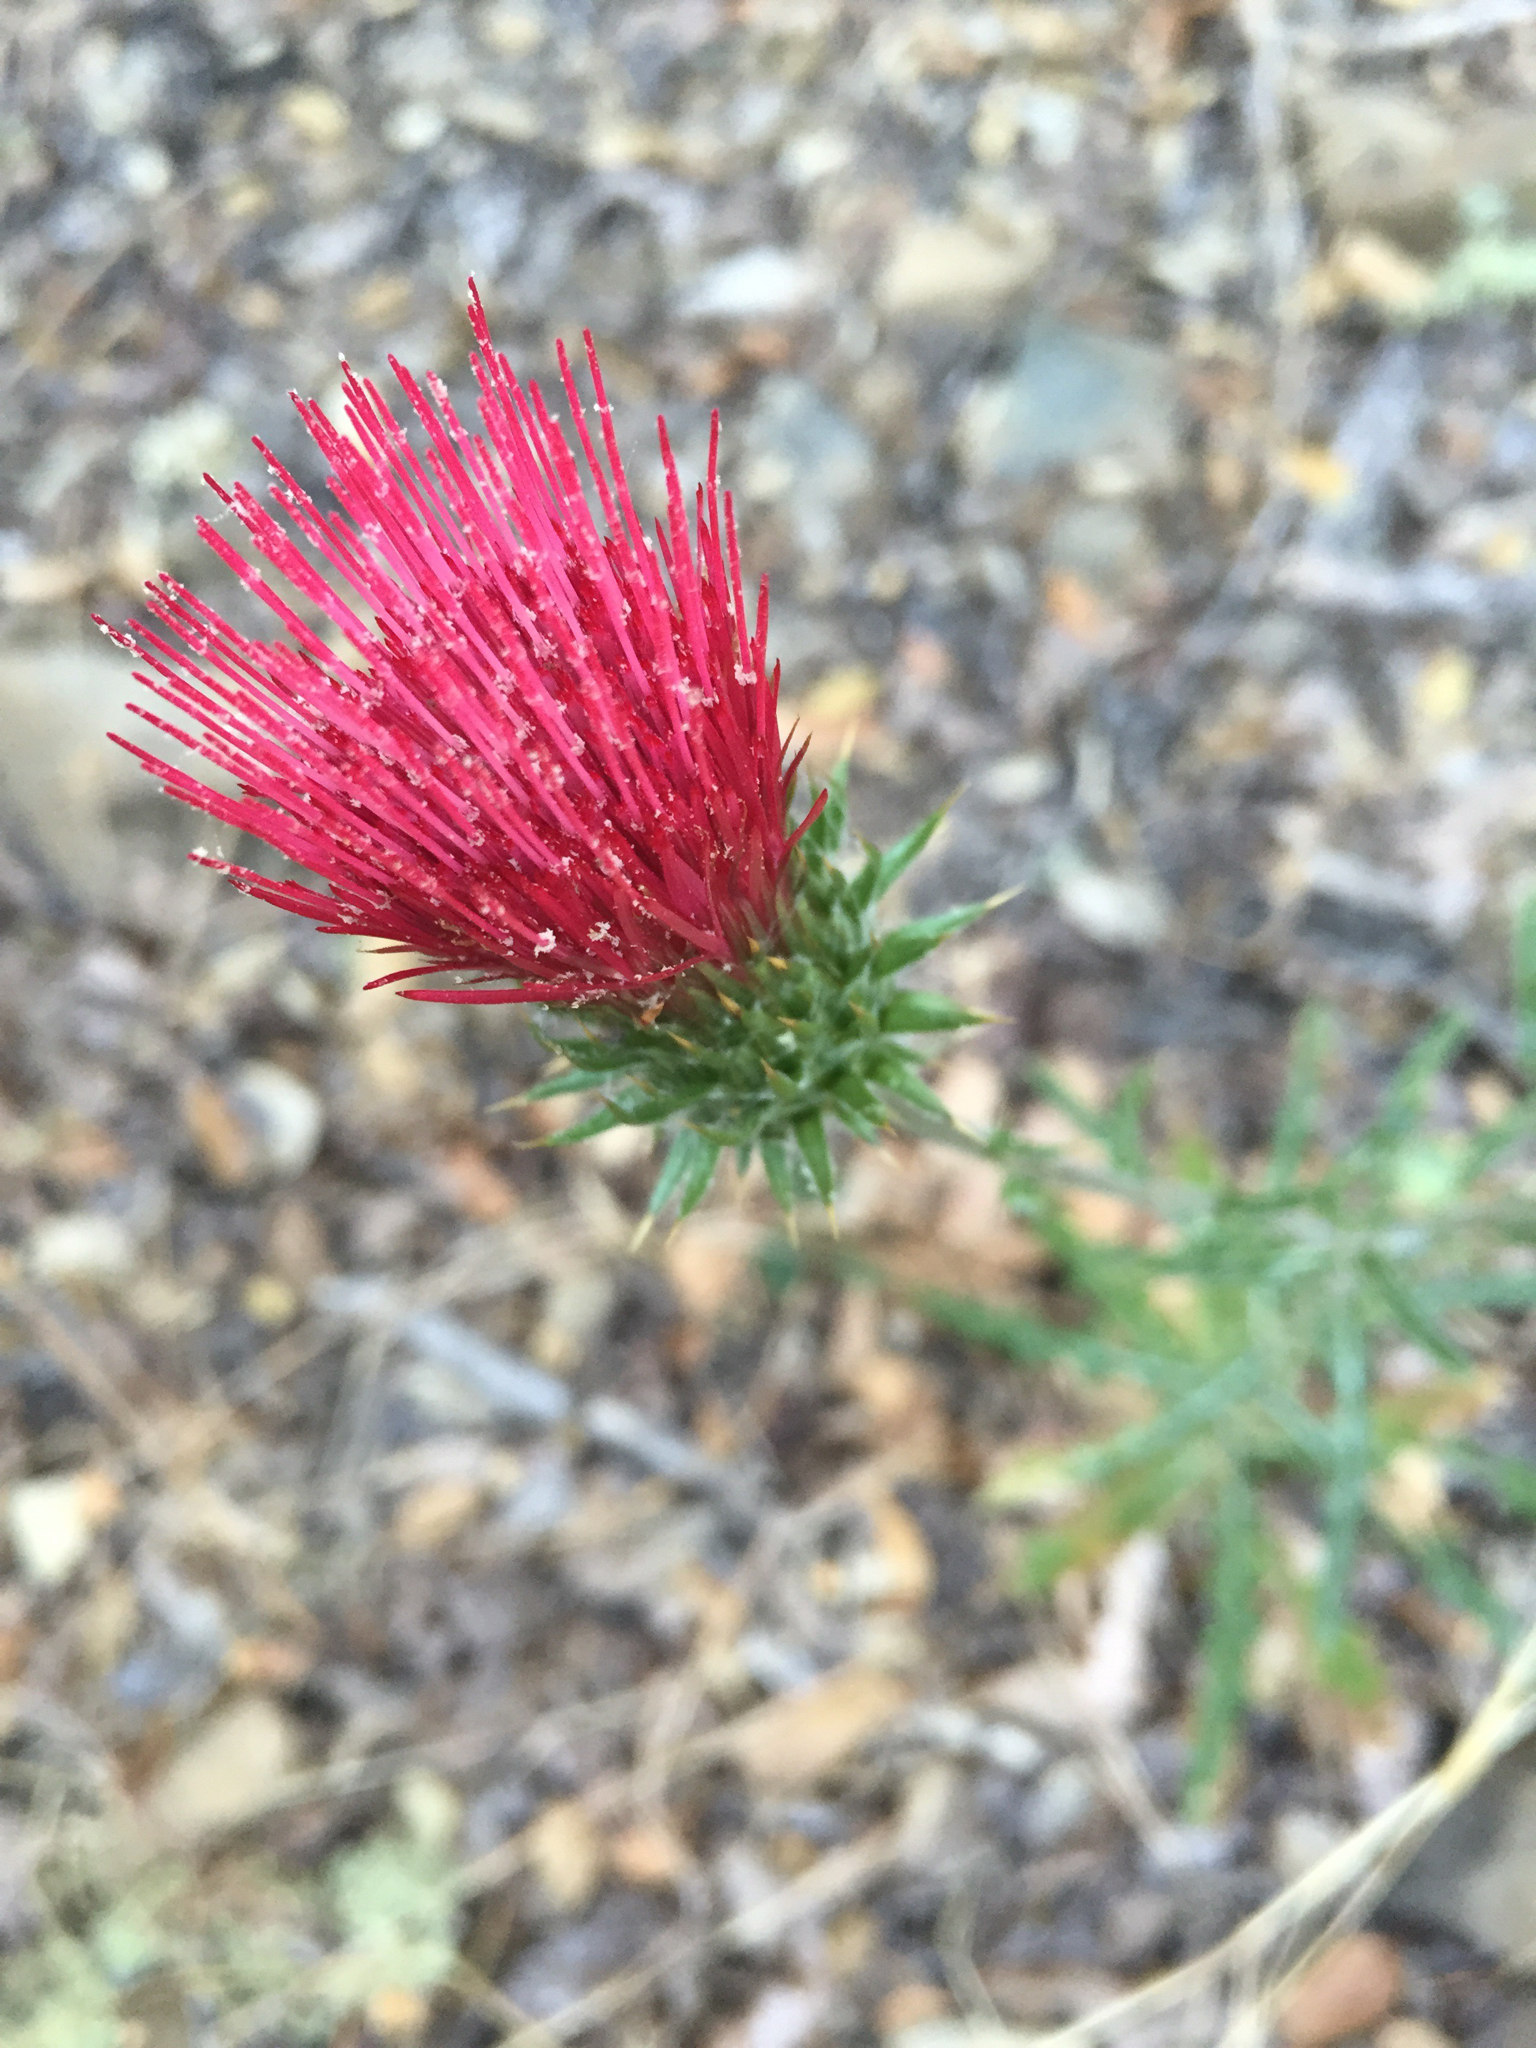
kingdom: Plantae
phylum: Tracheophyta
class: Magnoliopsida
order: Asterales
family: Asteraceae
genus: Cirsium
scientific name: Cirsium occidentale
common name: Western thistle
